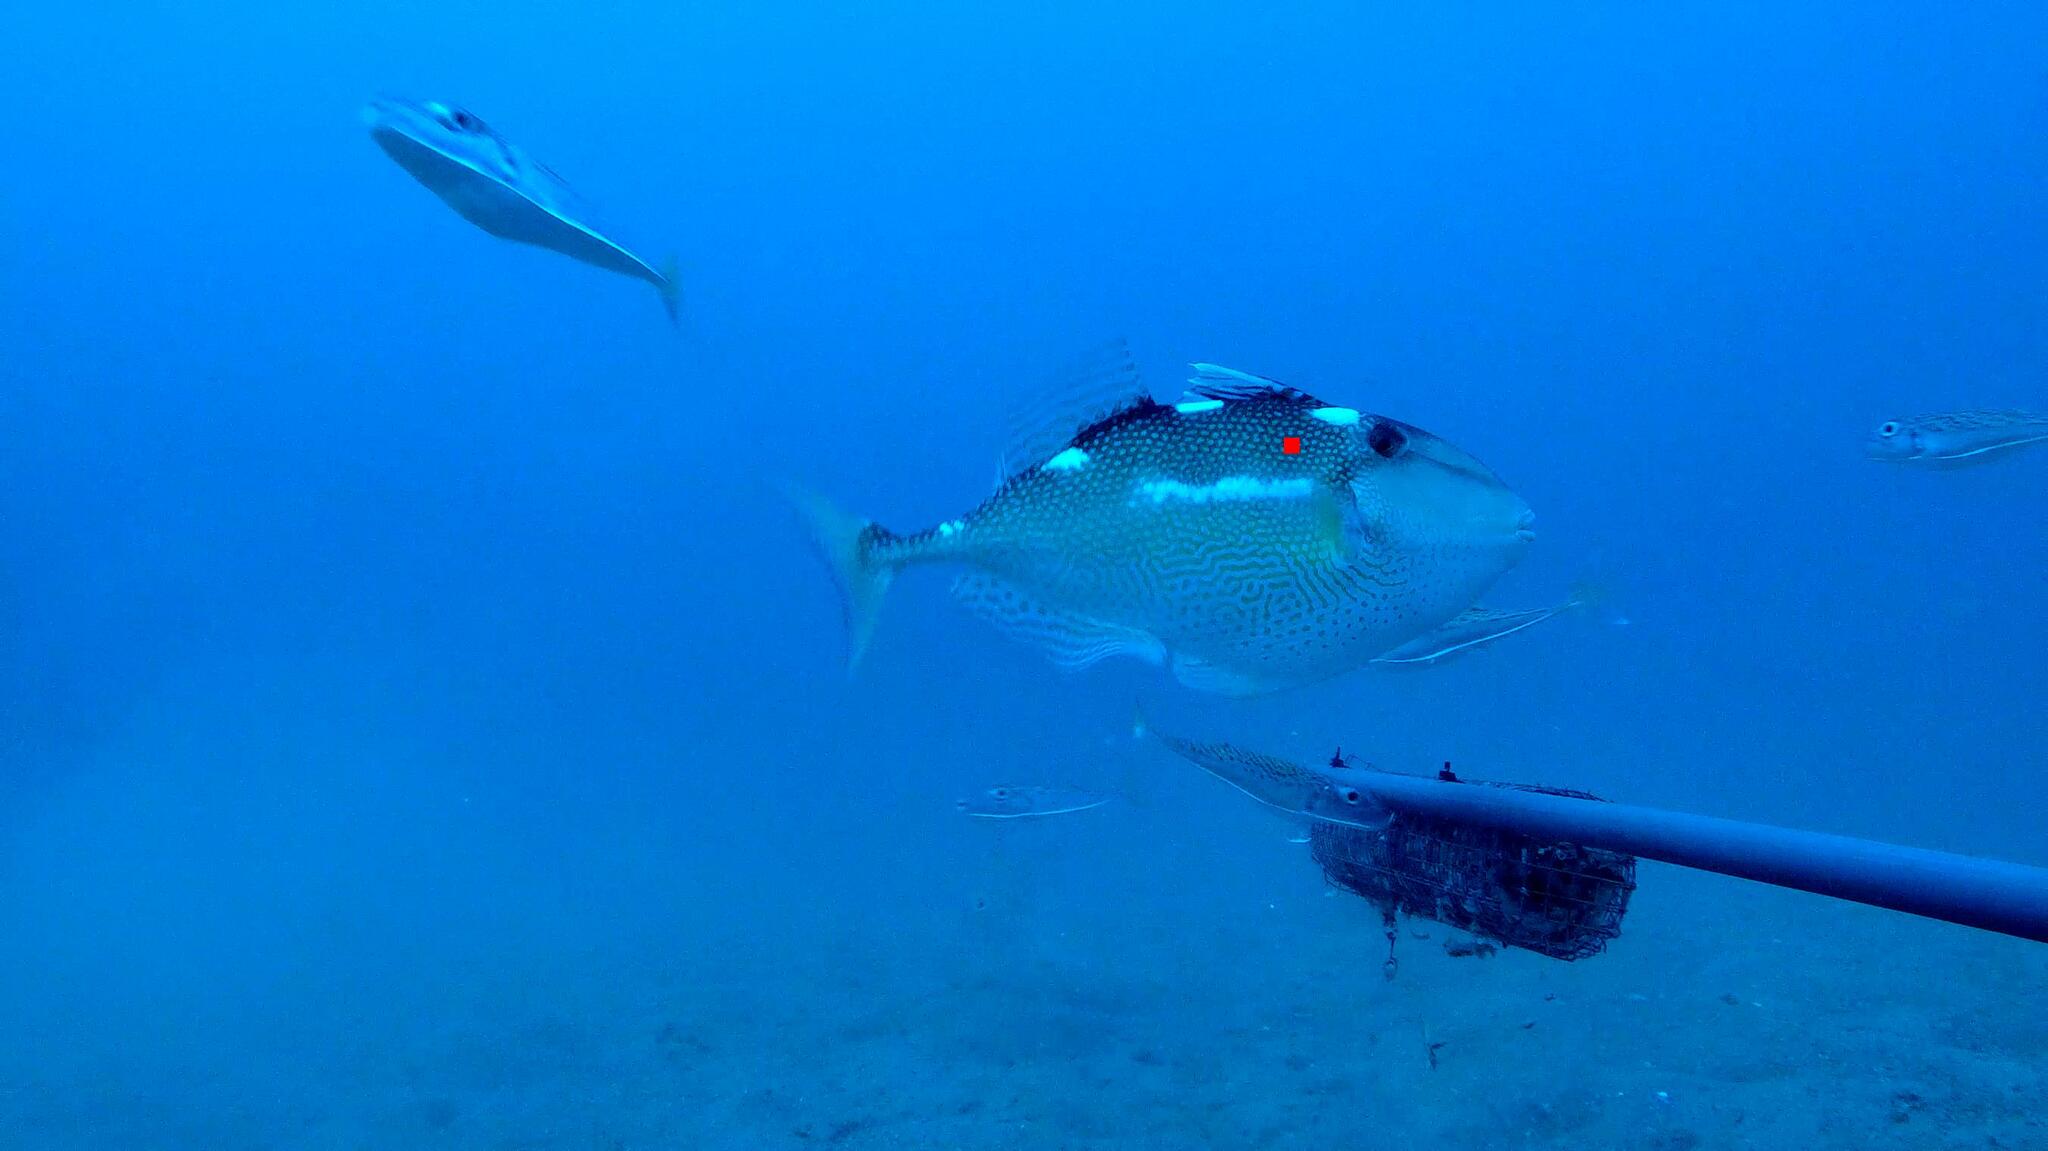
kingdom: Animalia
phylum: Chordata
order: Tetraodontiformes
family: Balistidae
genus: Abalistes
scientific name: Abalistes stellatus
